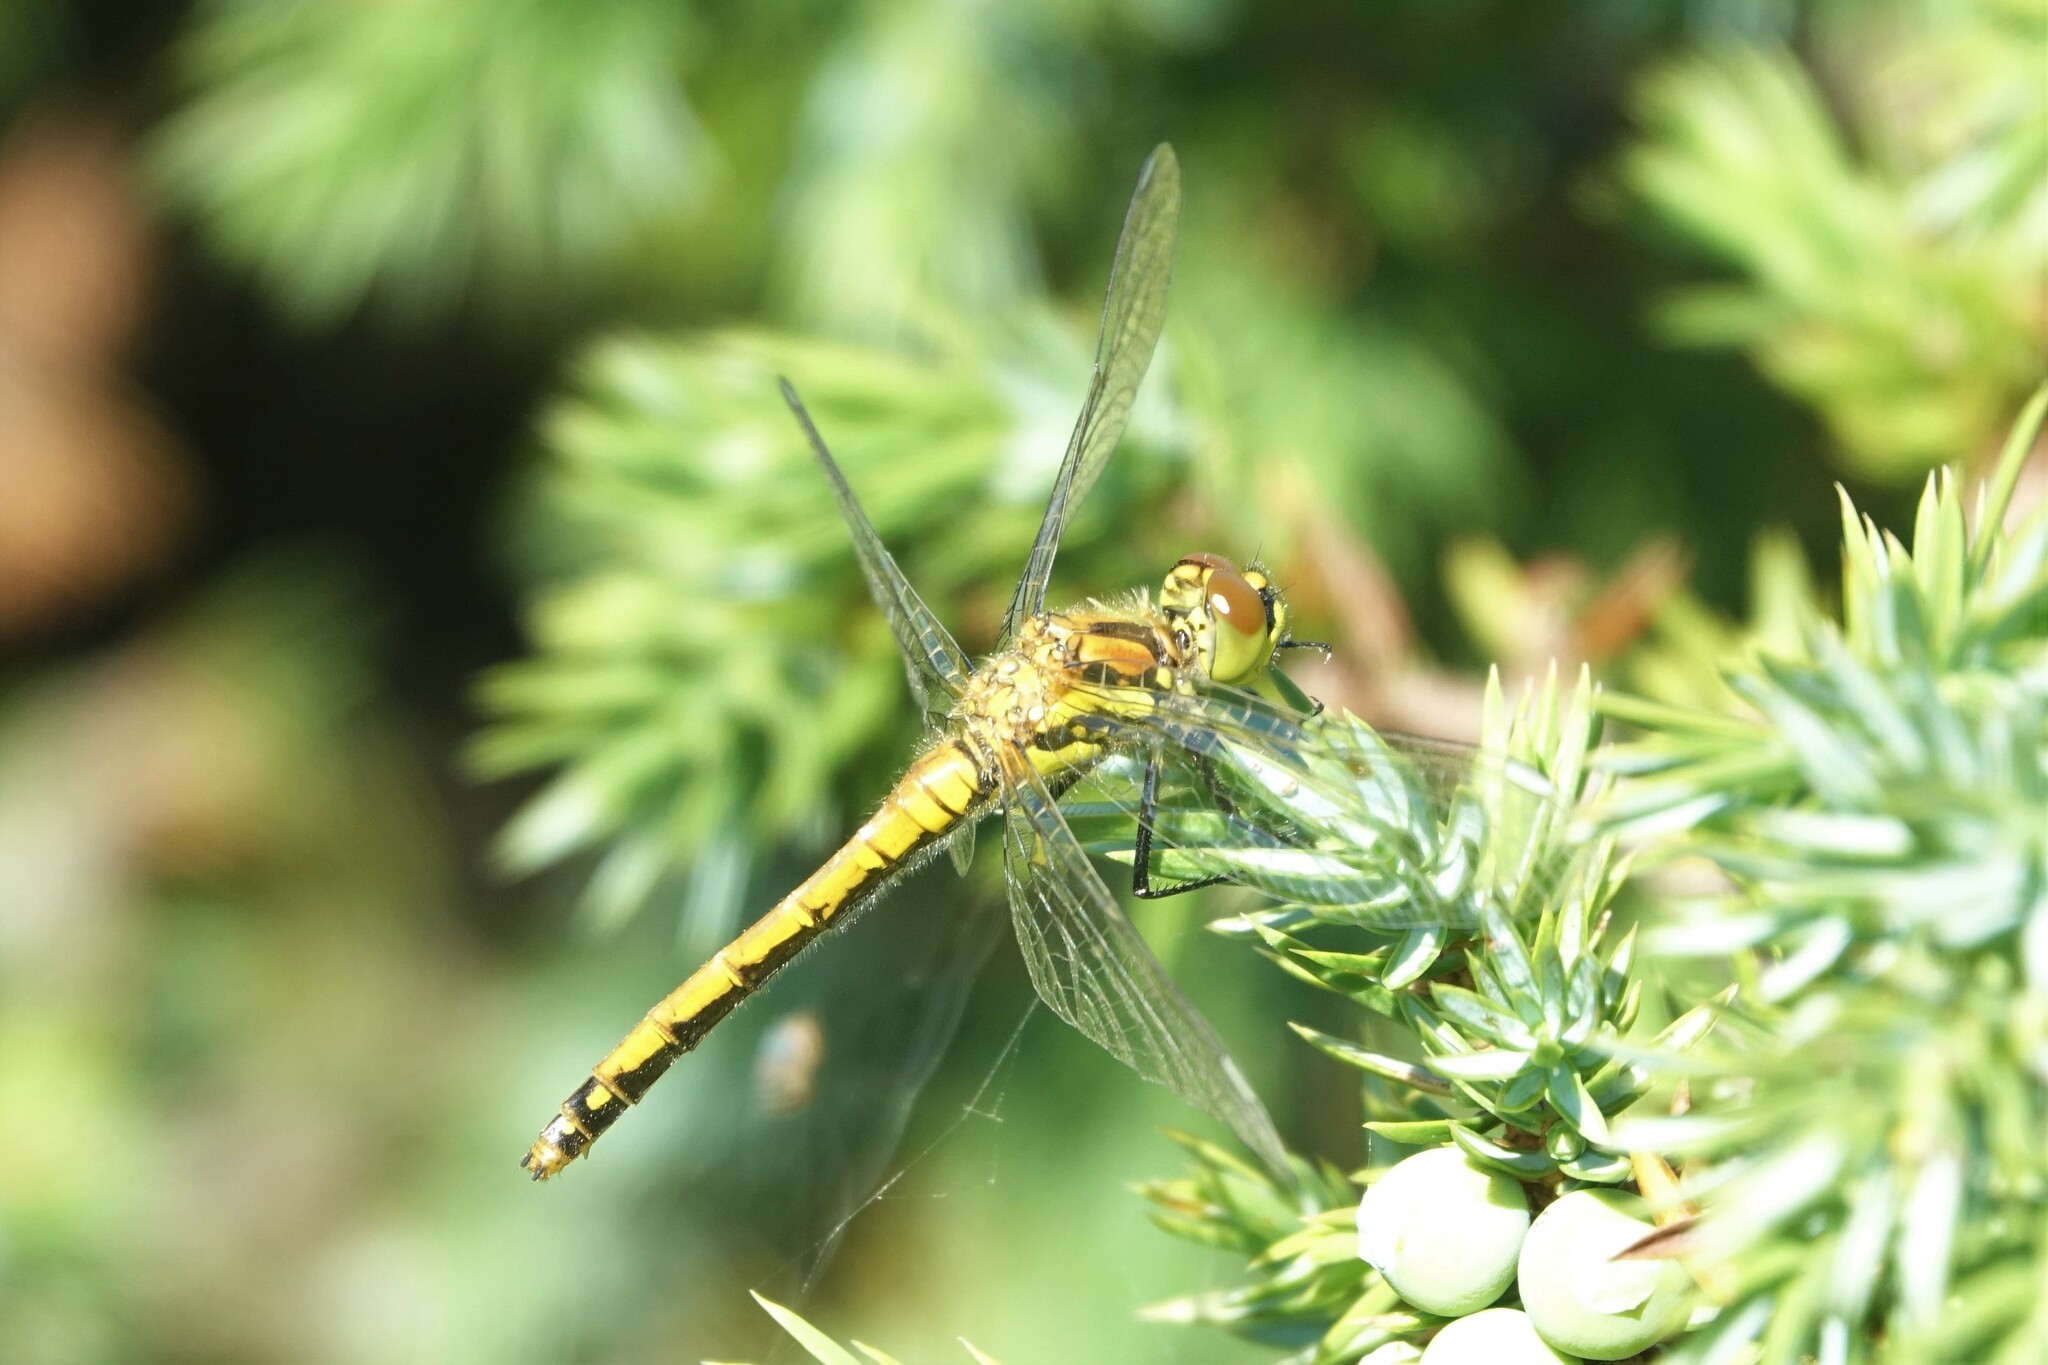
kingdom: Animalia
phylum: Arthropoda
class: Insecta
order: Odonata
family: Libellulidae
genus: Sympetrum
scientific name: Sympetrum danae
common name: Black darter
